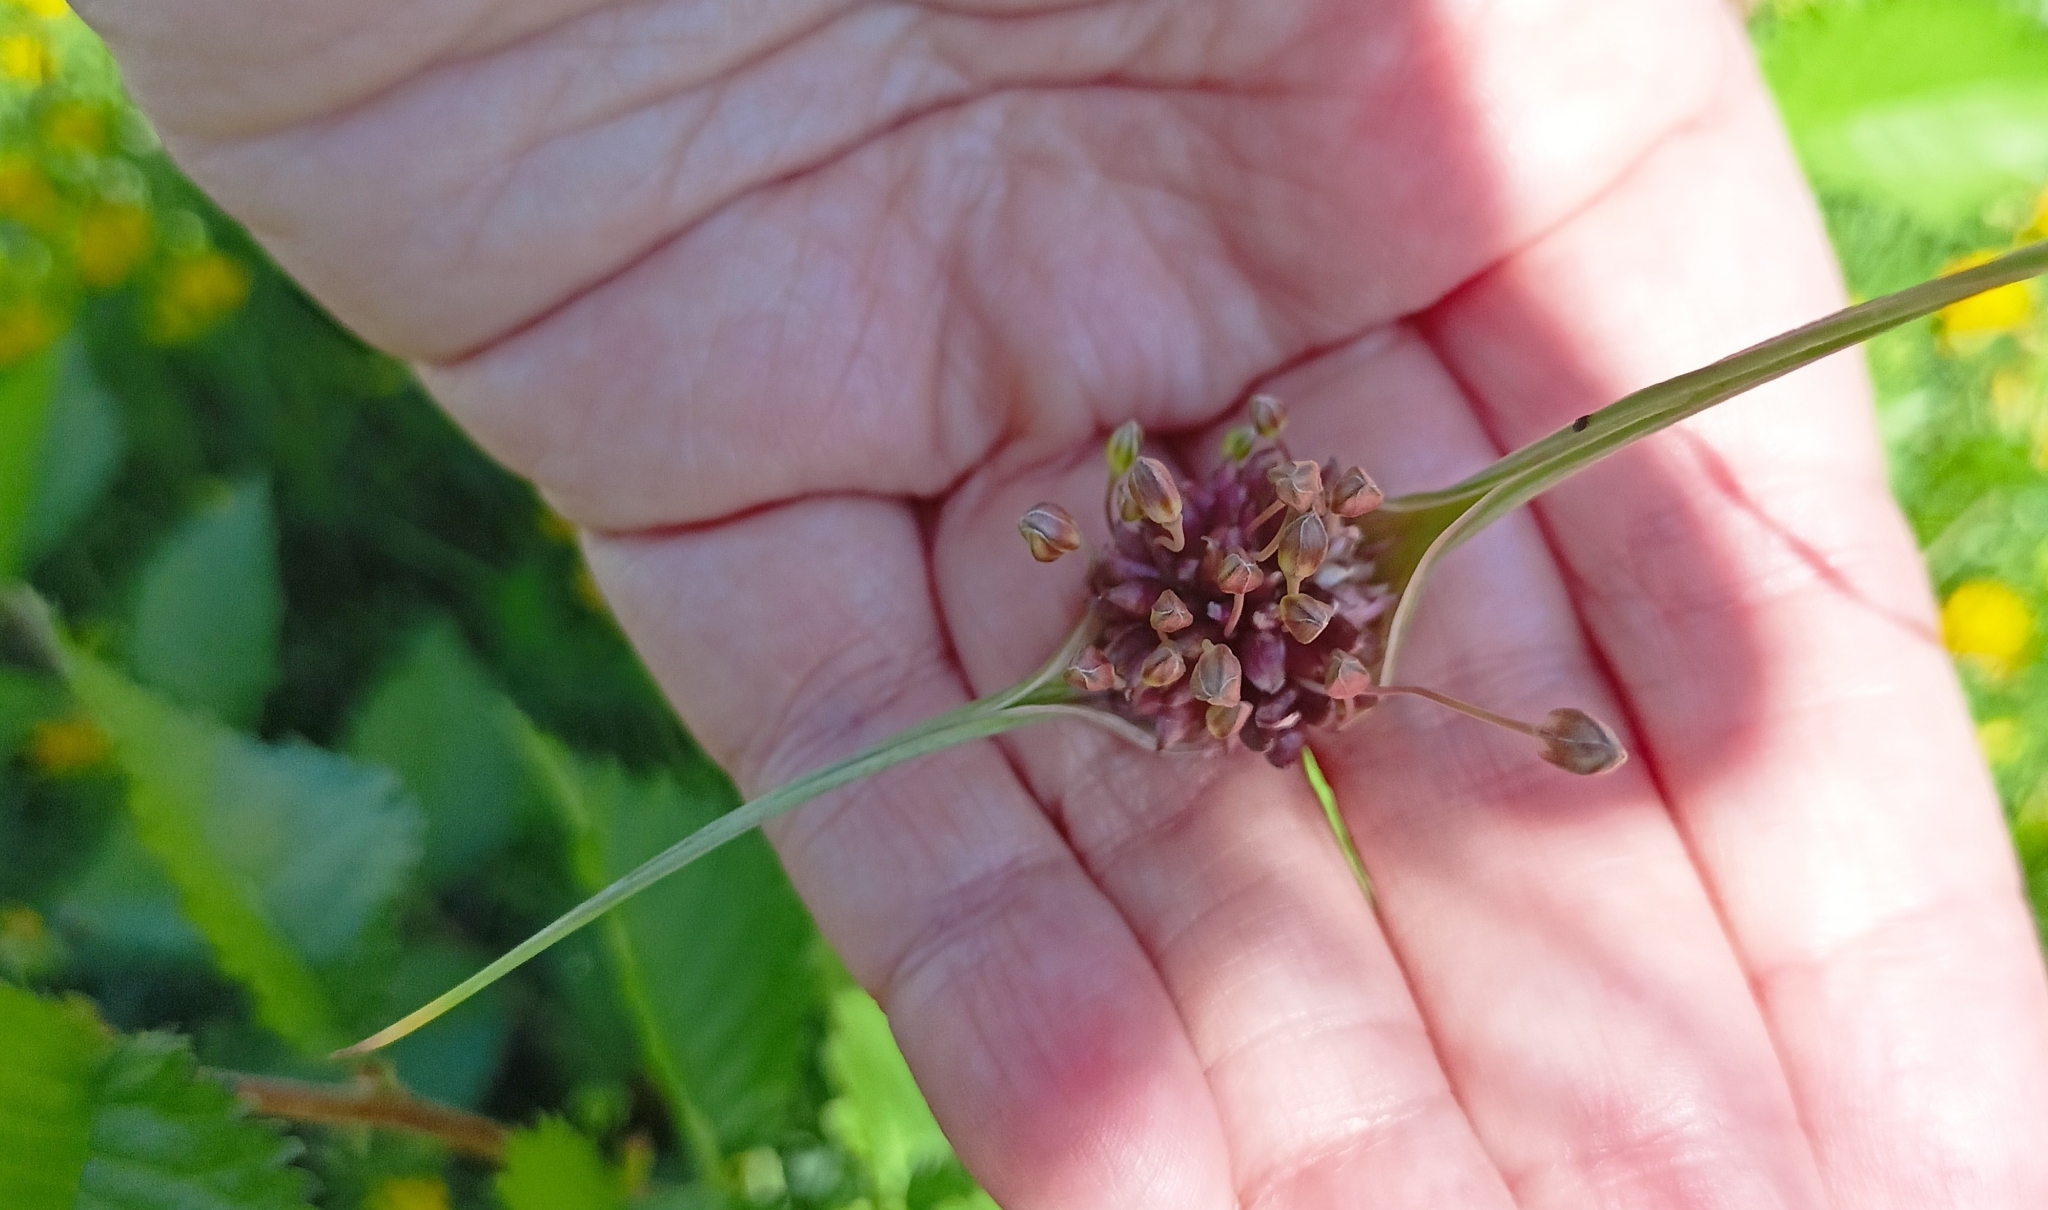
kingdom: Plantae
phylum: Tracheophyta
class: Liliopsida
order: Asparagales
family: Amaryllidaceae
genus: Allium
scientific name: Allium oleraceum
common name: Field garlic
